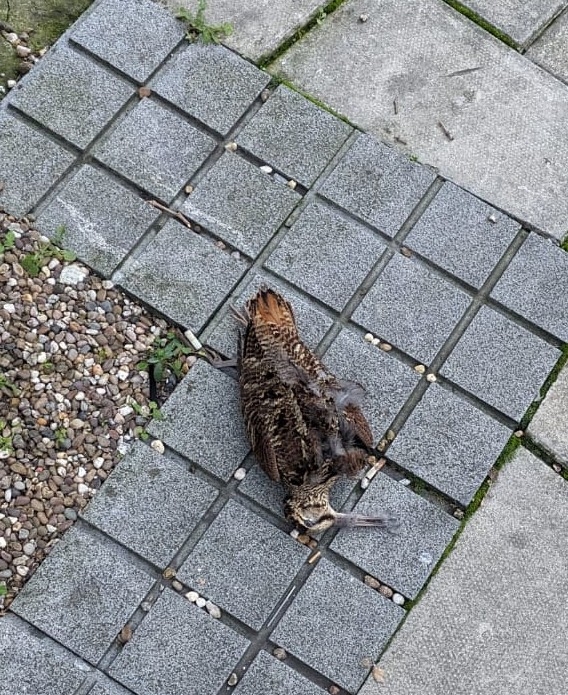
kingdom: Animalia
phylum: Chordata
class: Aves
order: Charadriiformes
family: Scolopacidae
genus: Scolopax
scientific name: Scolopax rusticola
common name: Eurasian woodcock
